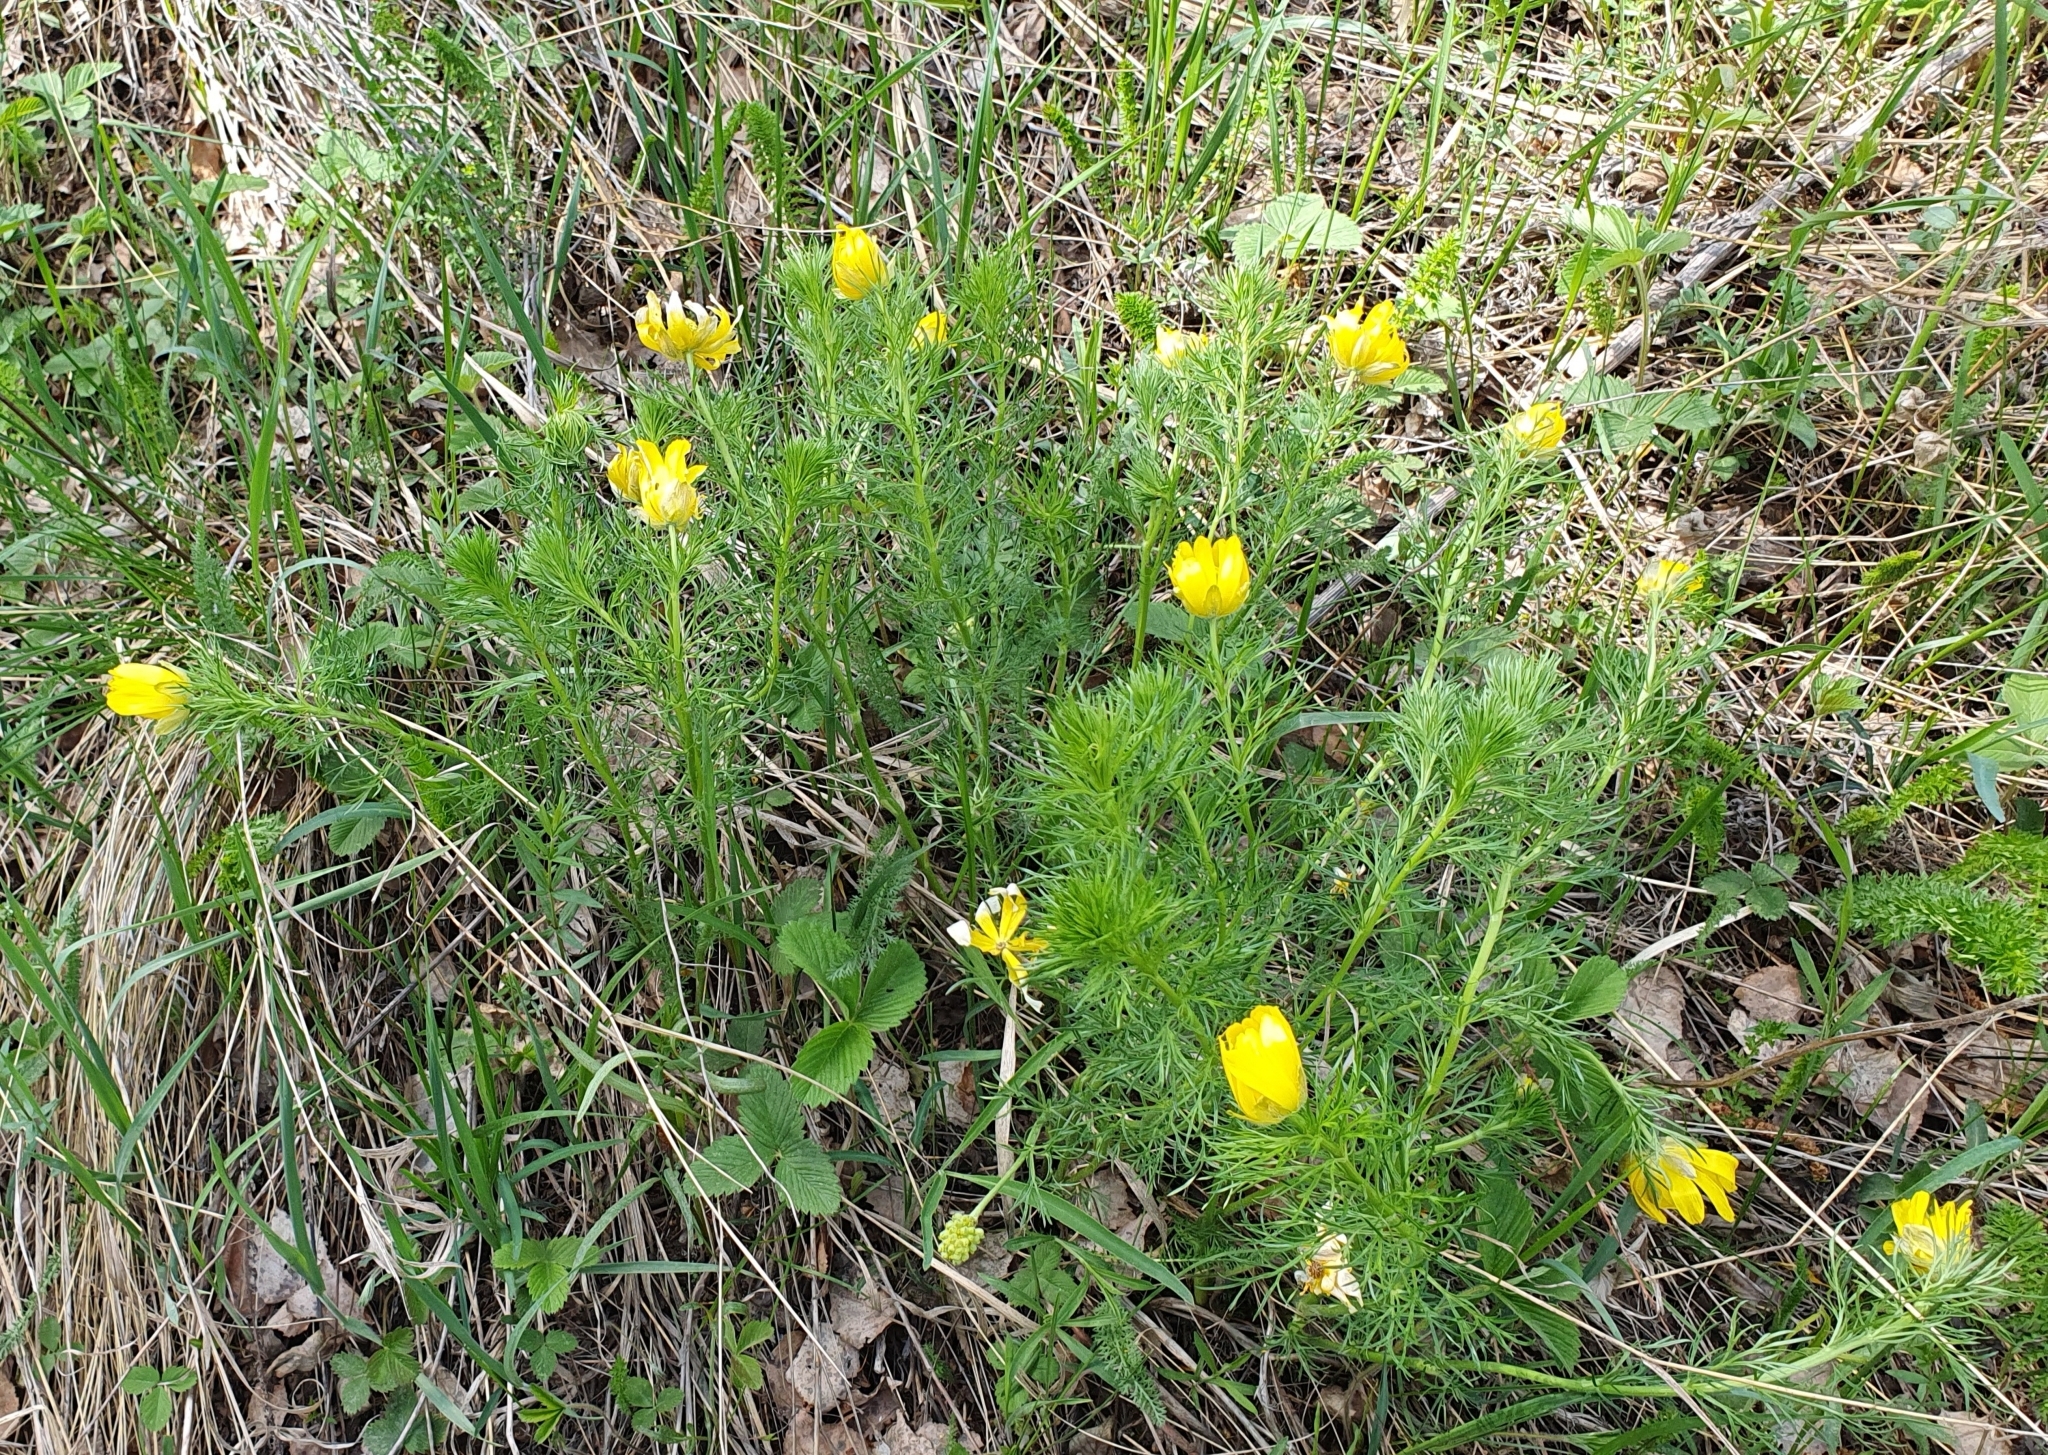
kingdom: Plantae
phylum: Tracheophyta
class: Magnoliopsida
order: Ranunculales
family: Ranunculaceae
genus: Adonis
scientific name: Adonis vernalis
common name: Yellow pheasants-eye
